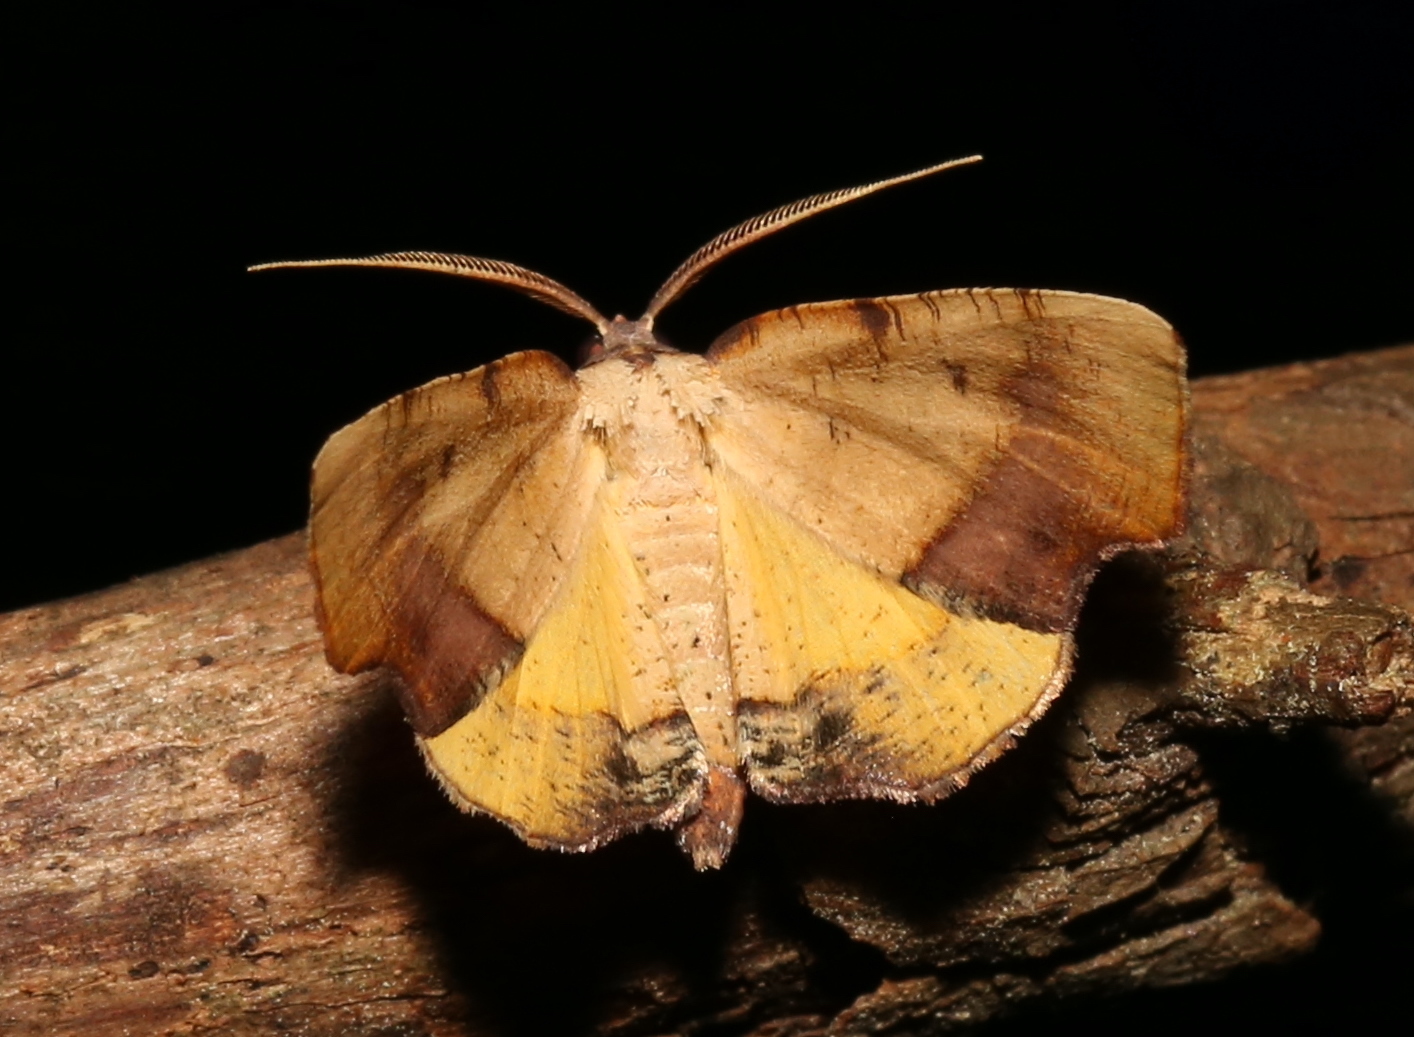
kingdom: Animalia
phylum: Arthropoda
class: Insecta
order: Lepidoptera
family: Geometridae
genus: Plagodis
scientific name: Plagodis fervidaria
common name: Fervid plagodis
